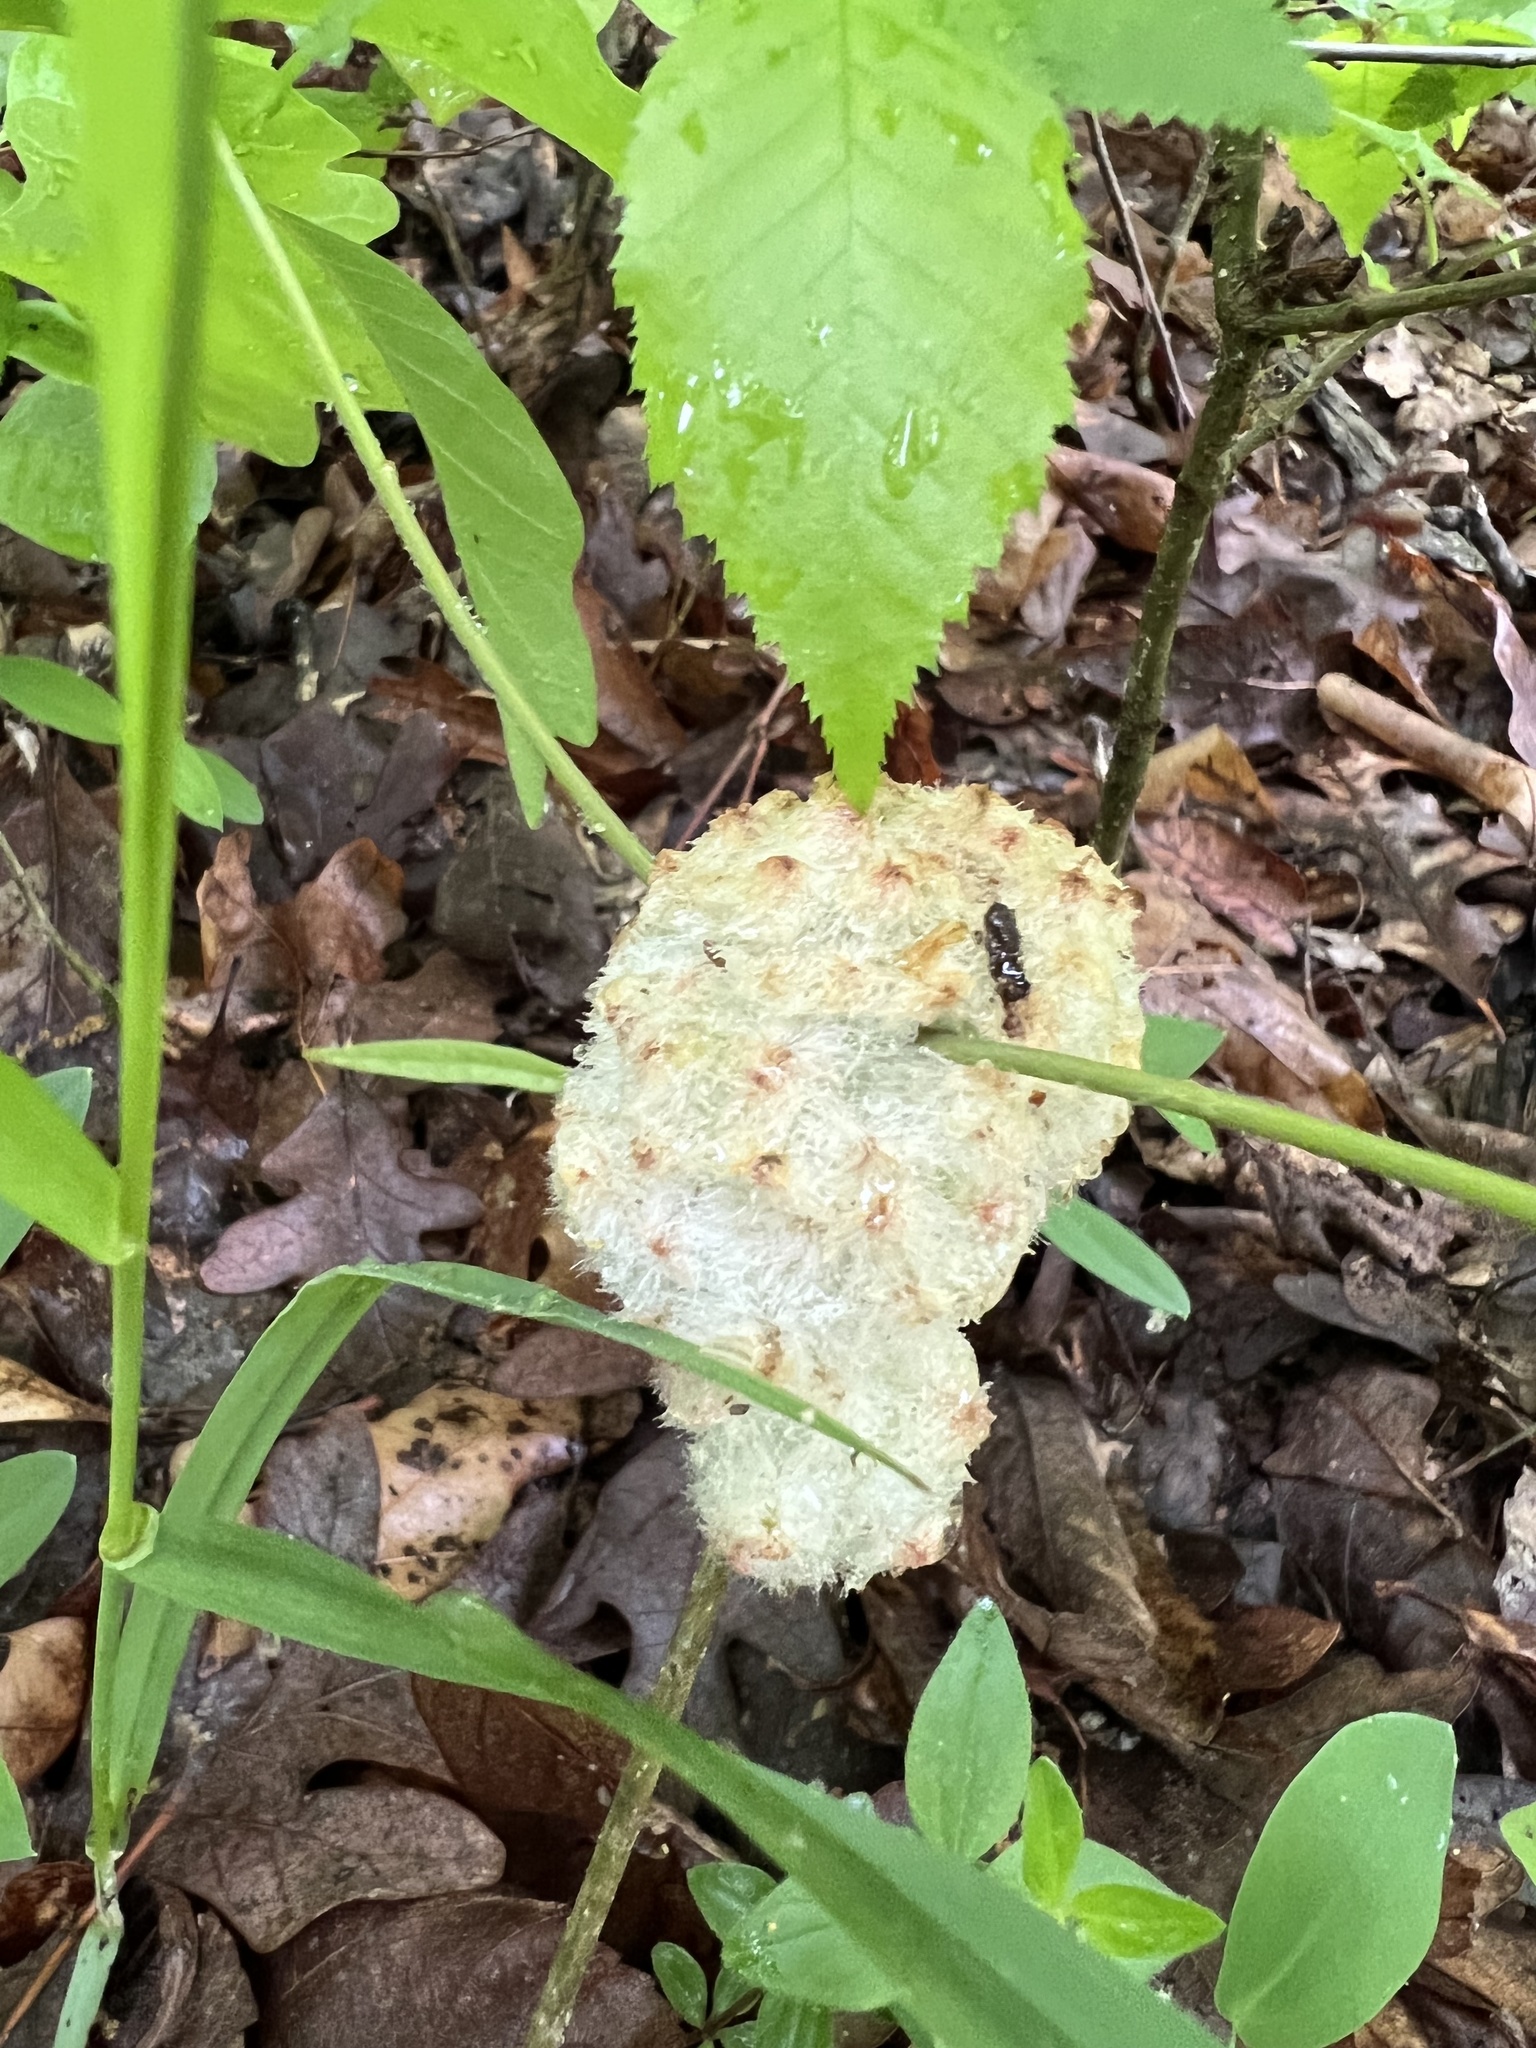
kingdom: Animalia
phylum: Arthropoda
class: Insecta
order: Hymenoptera
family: Cynipidae
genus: Callirhytis
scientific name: Callirhytis
